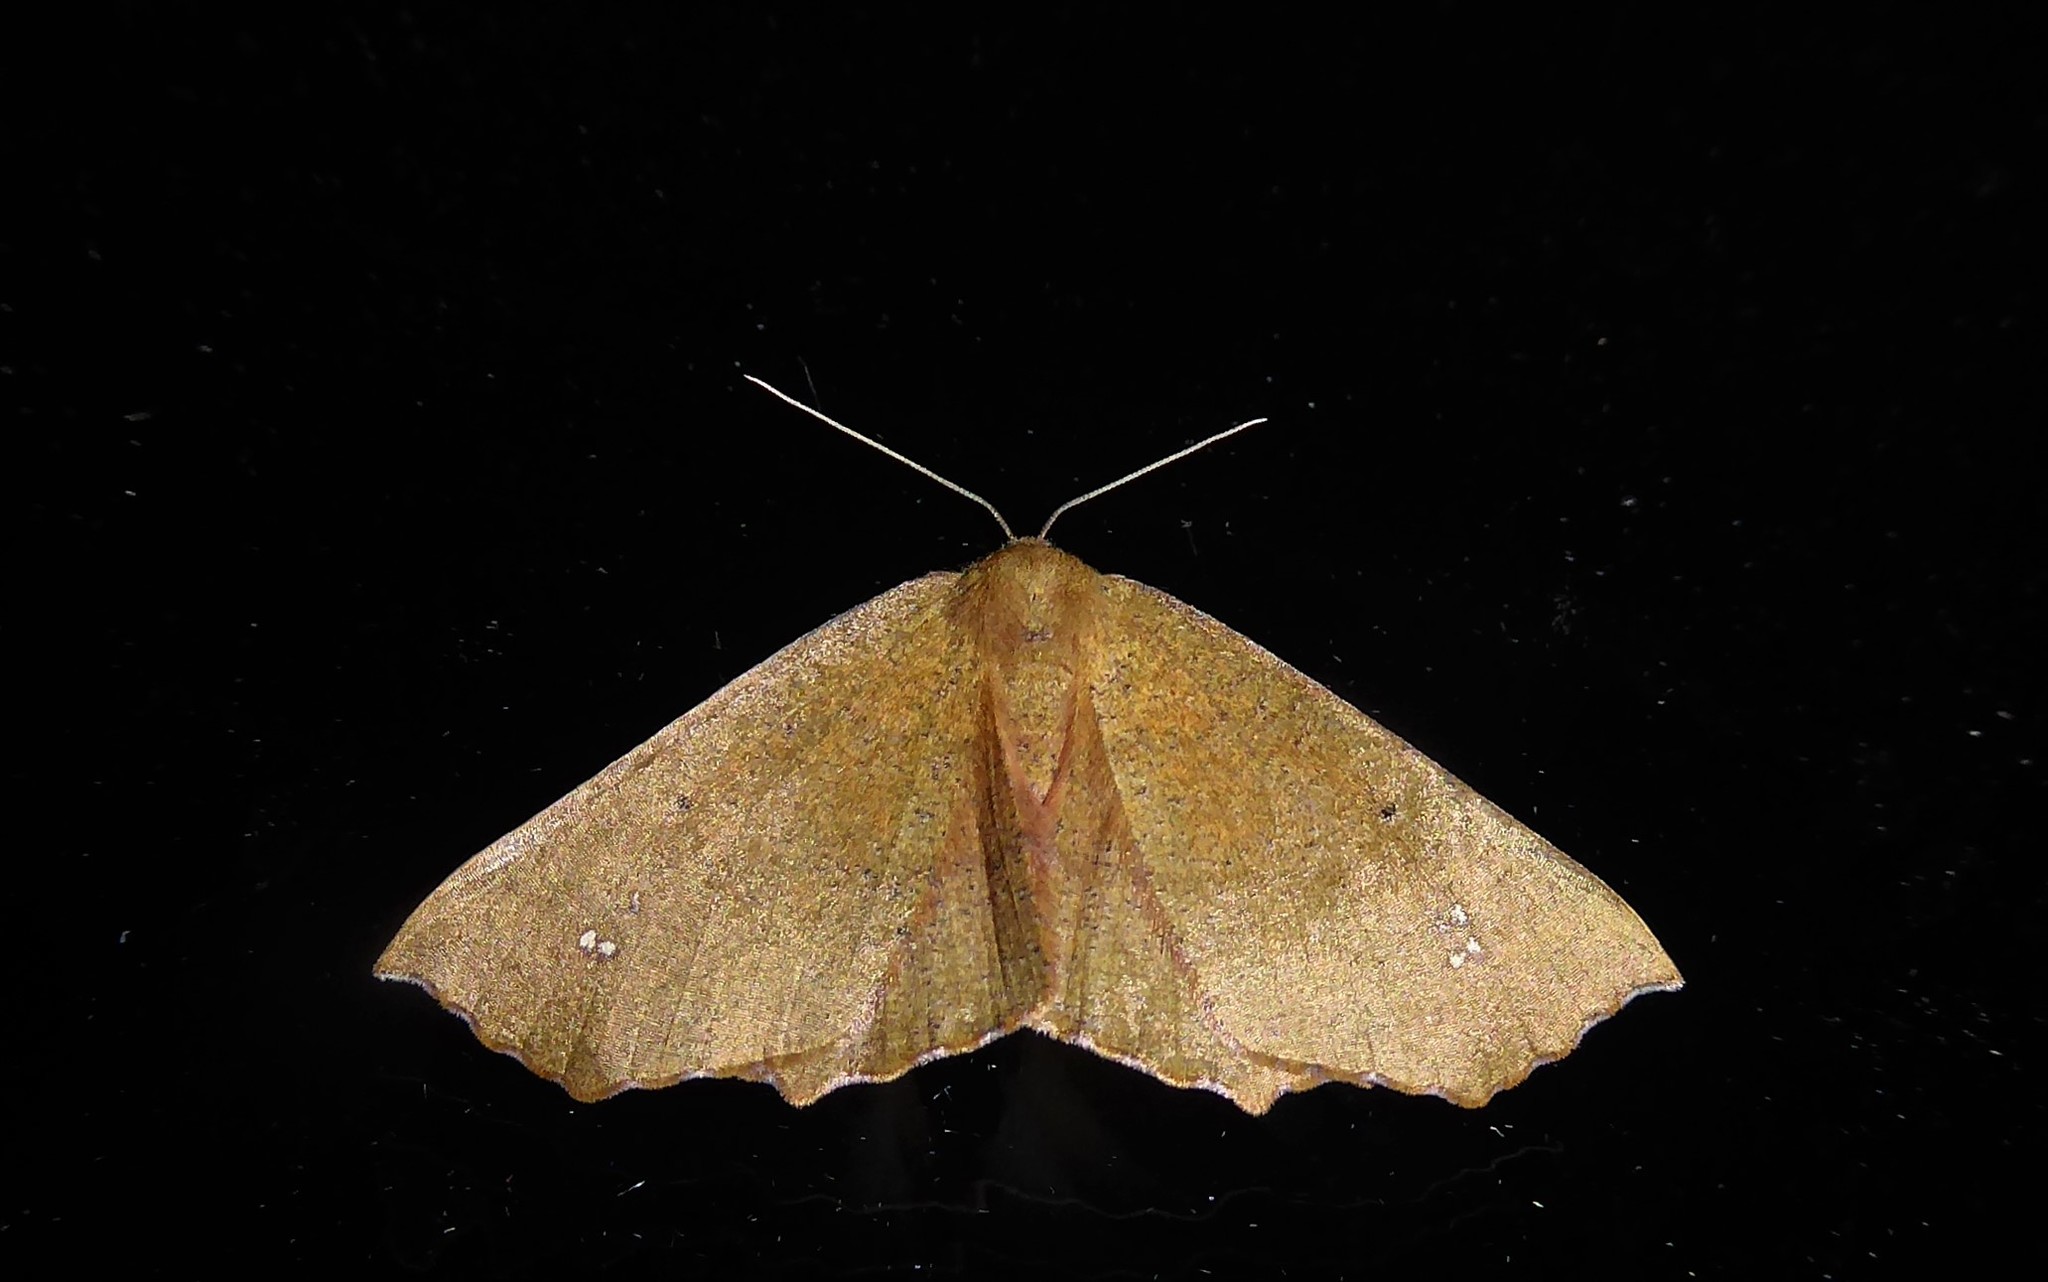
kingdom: Animalia
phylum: Arthropoda
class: Insecta
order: Lepidoptera
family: Geometridae
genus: Xyridacma
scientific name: Xyridacma ustaria
